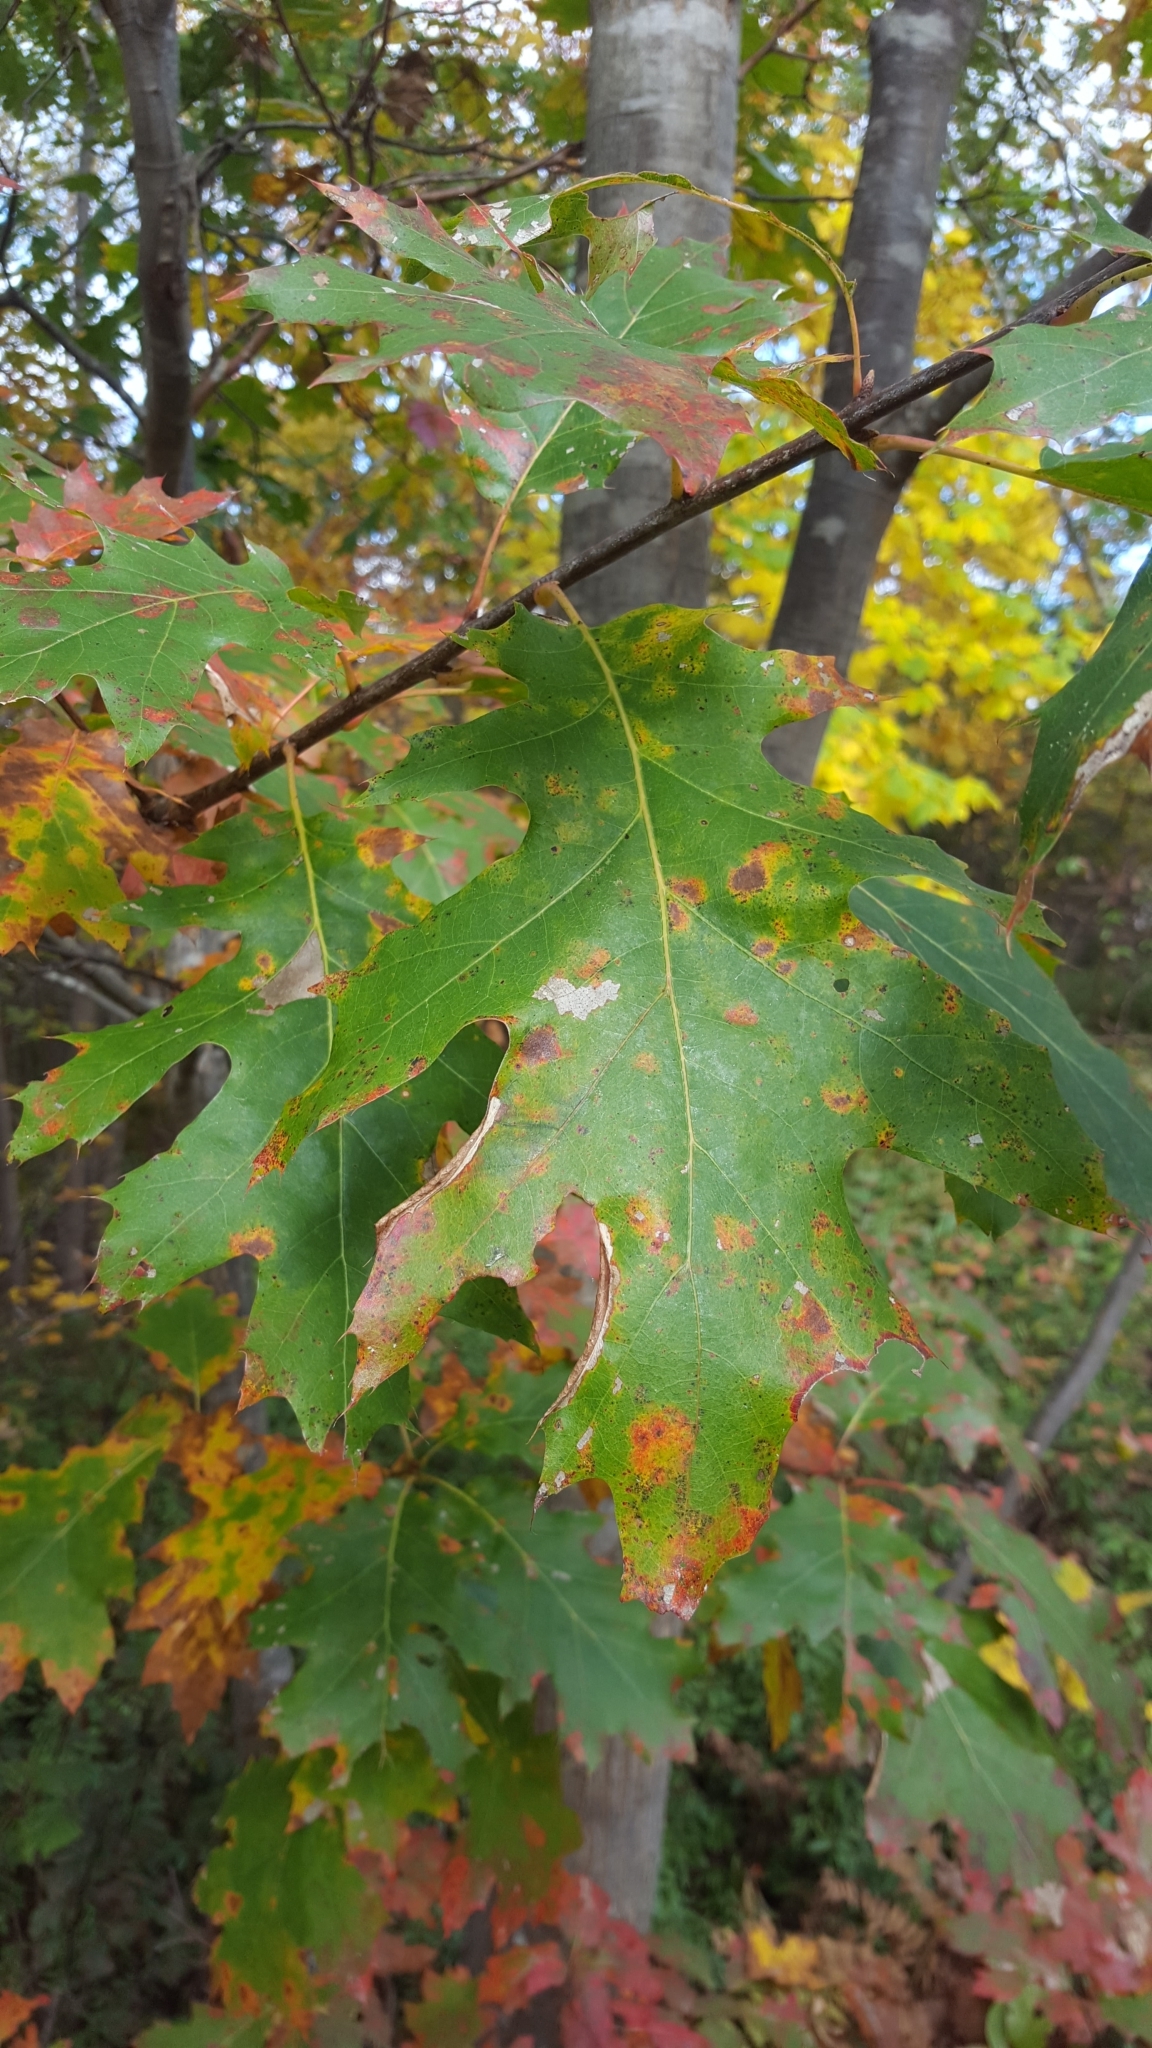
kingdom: Plantae
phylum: Tracheophyta
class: Magnoliopsida
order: Fagales
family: Fagaceae
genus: Quercus
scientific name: Quercus rubra
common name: Red oak
